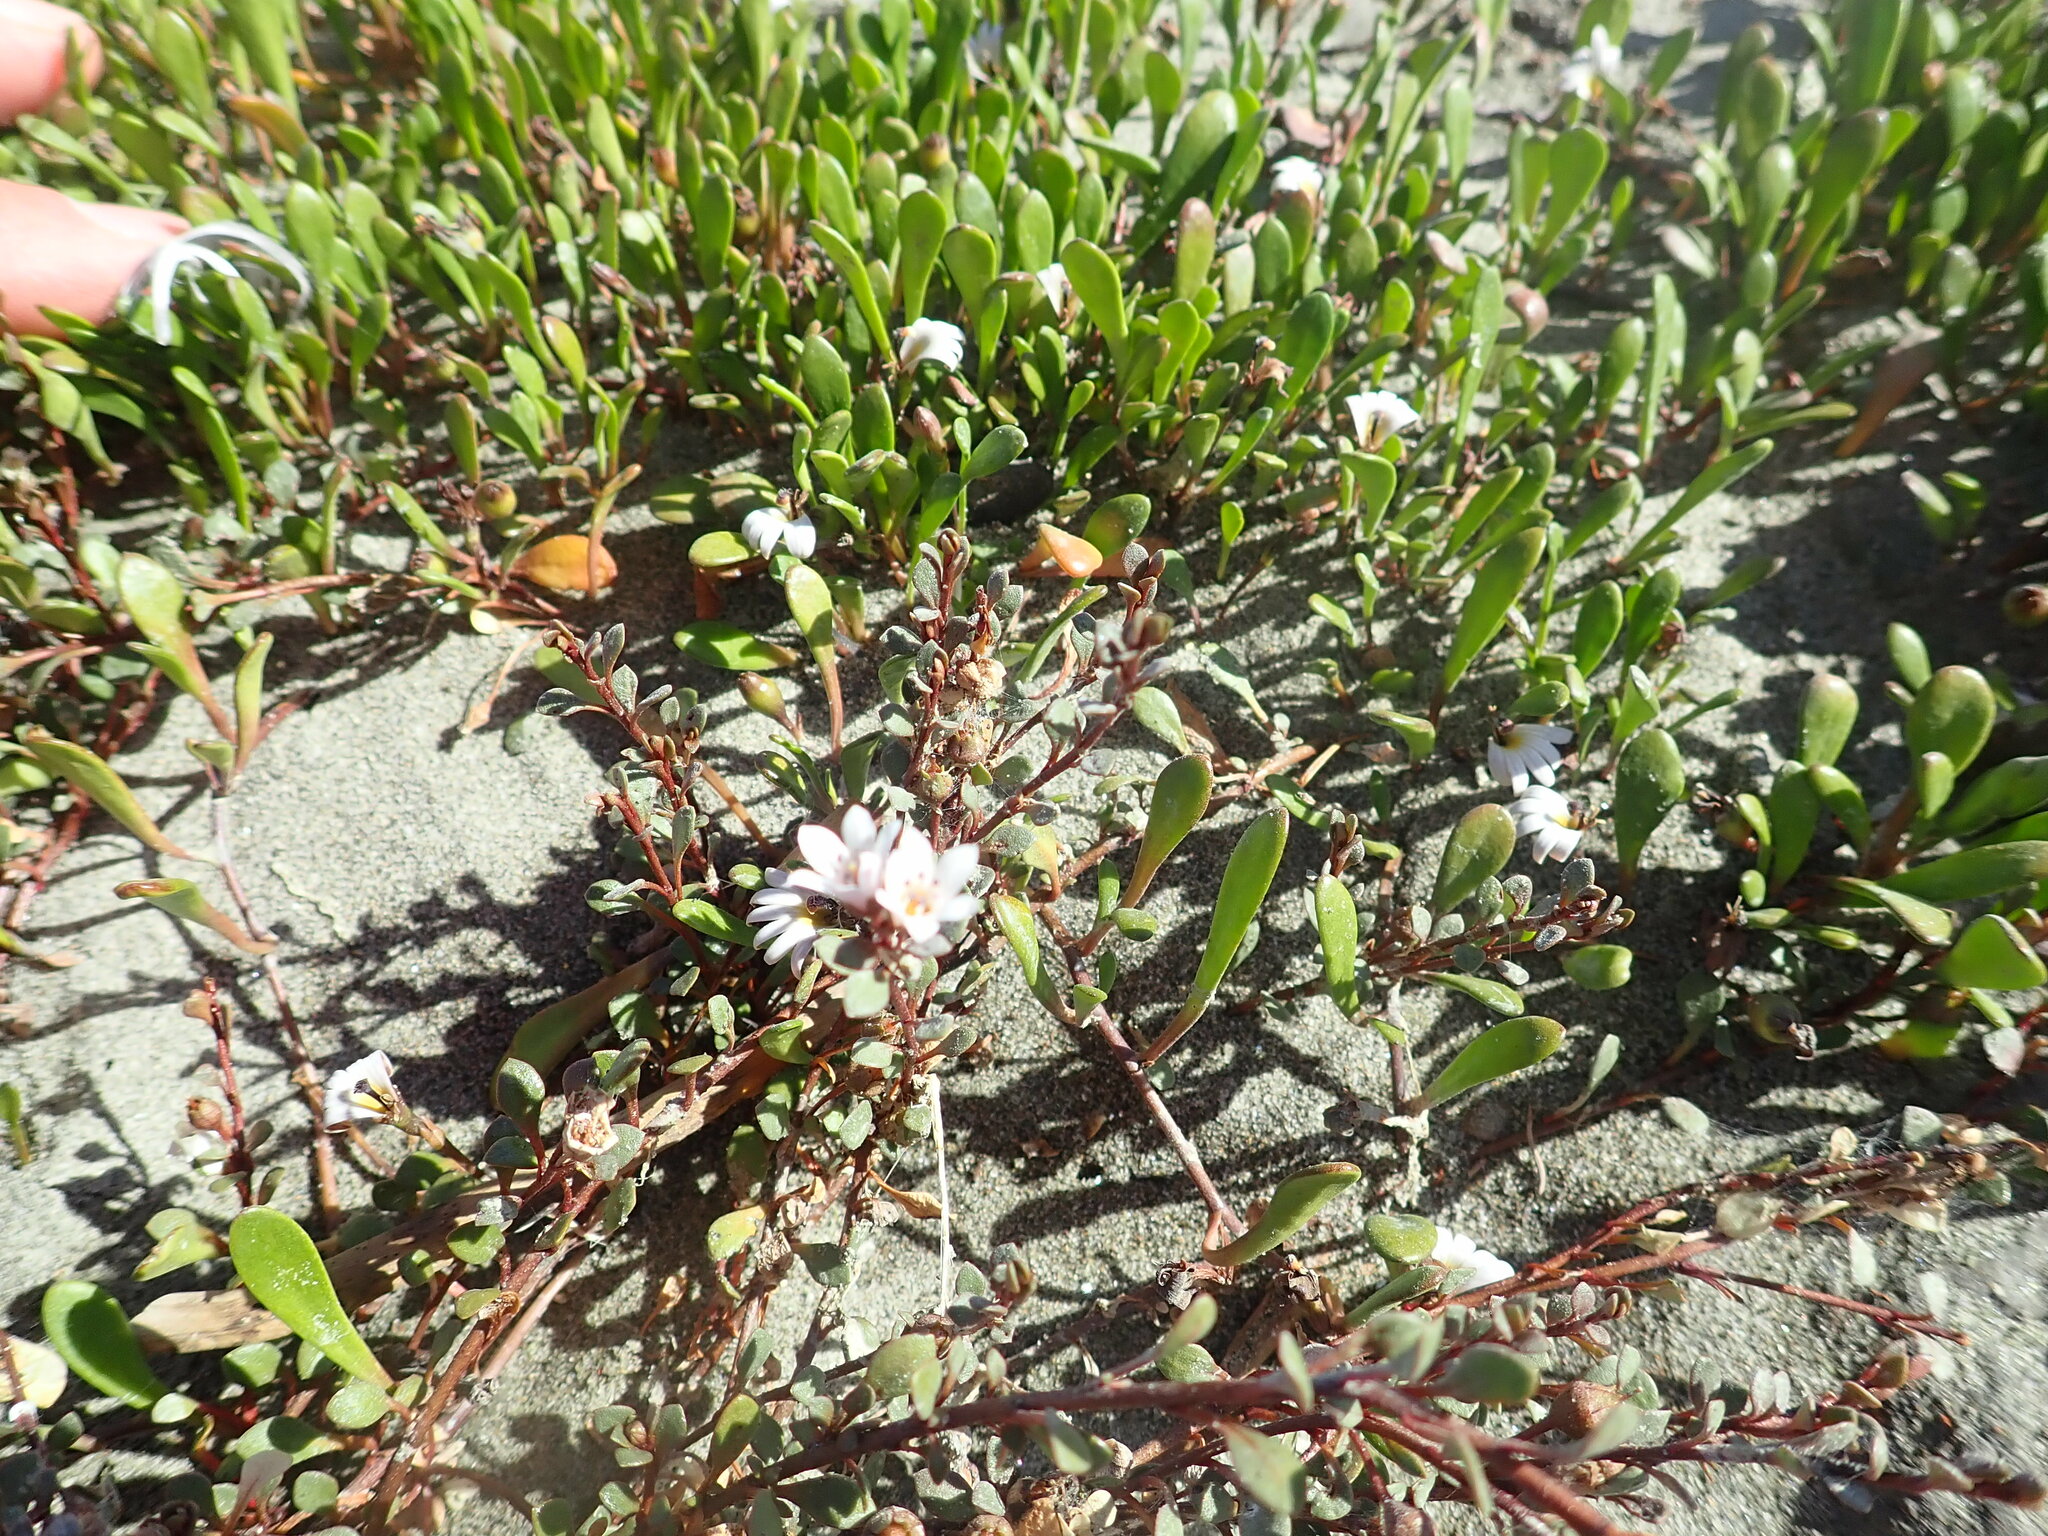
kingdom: Plantae
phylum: Tracheophyta
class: Magnoliopsida
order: Ericales
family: Primulaceae
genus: Samolus
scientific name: Samolus repens
